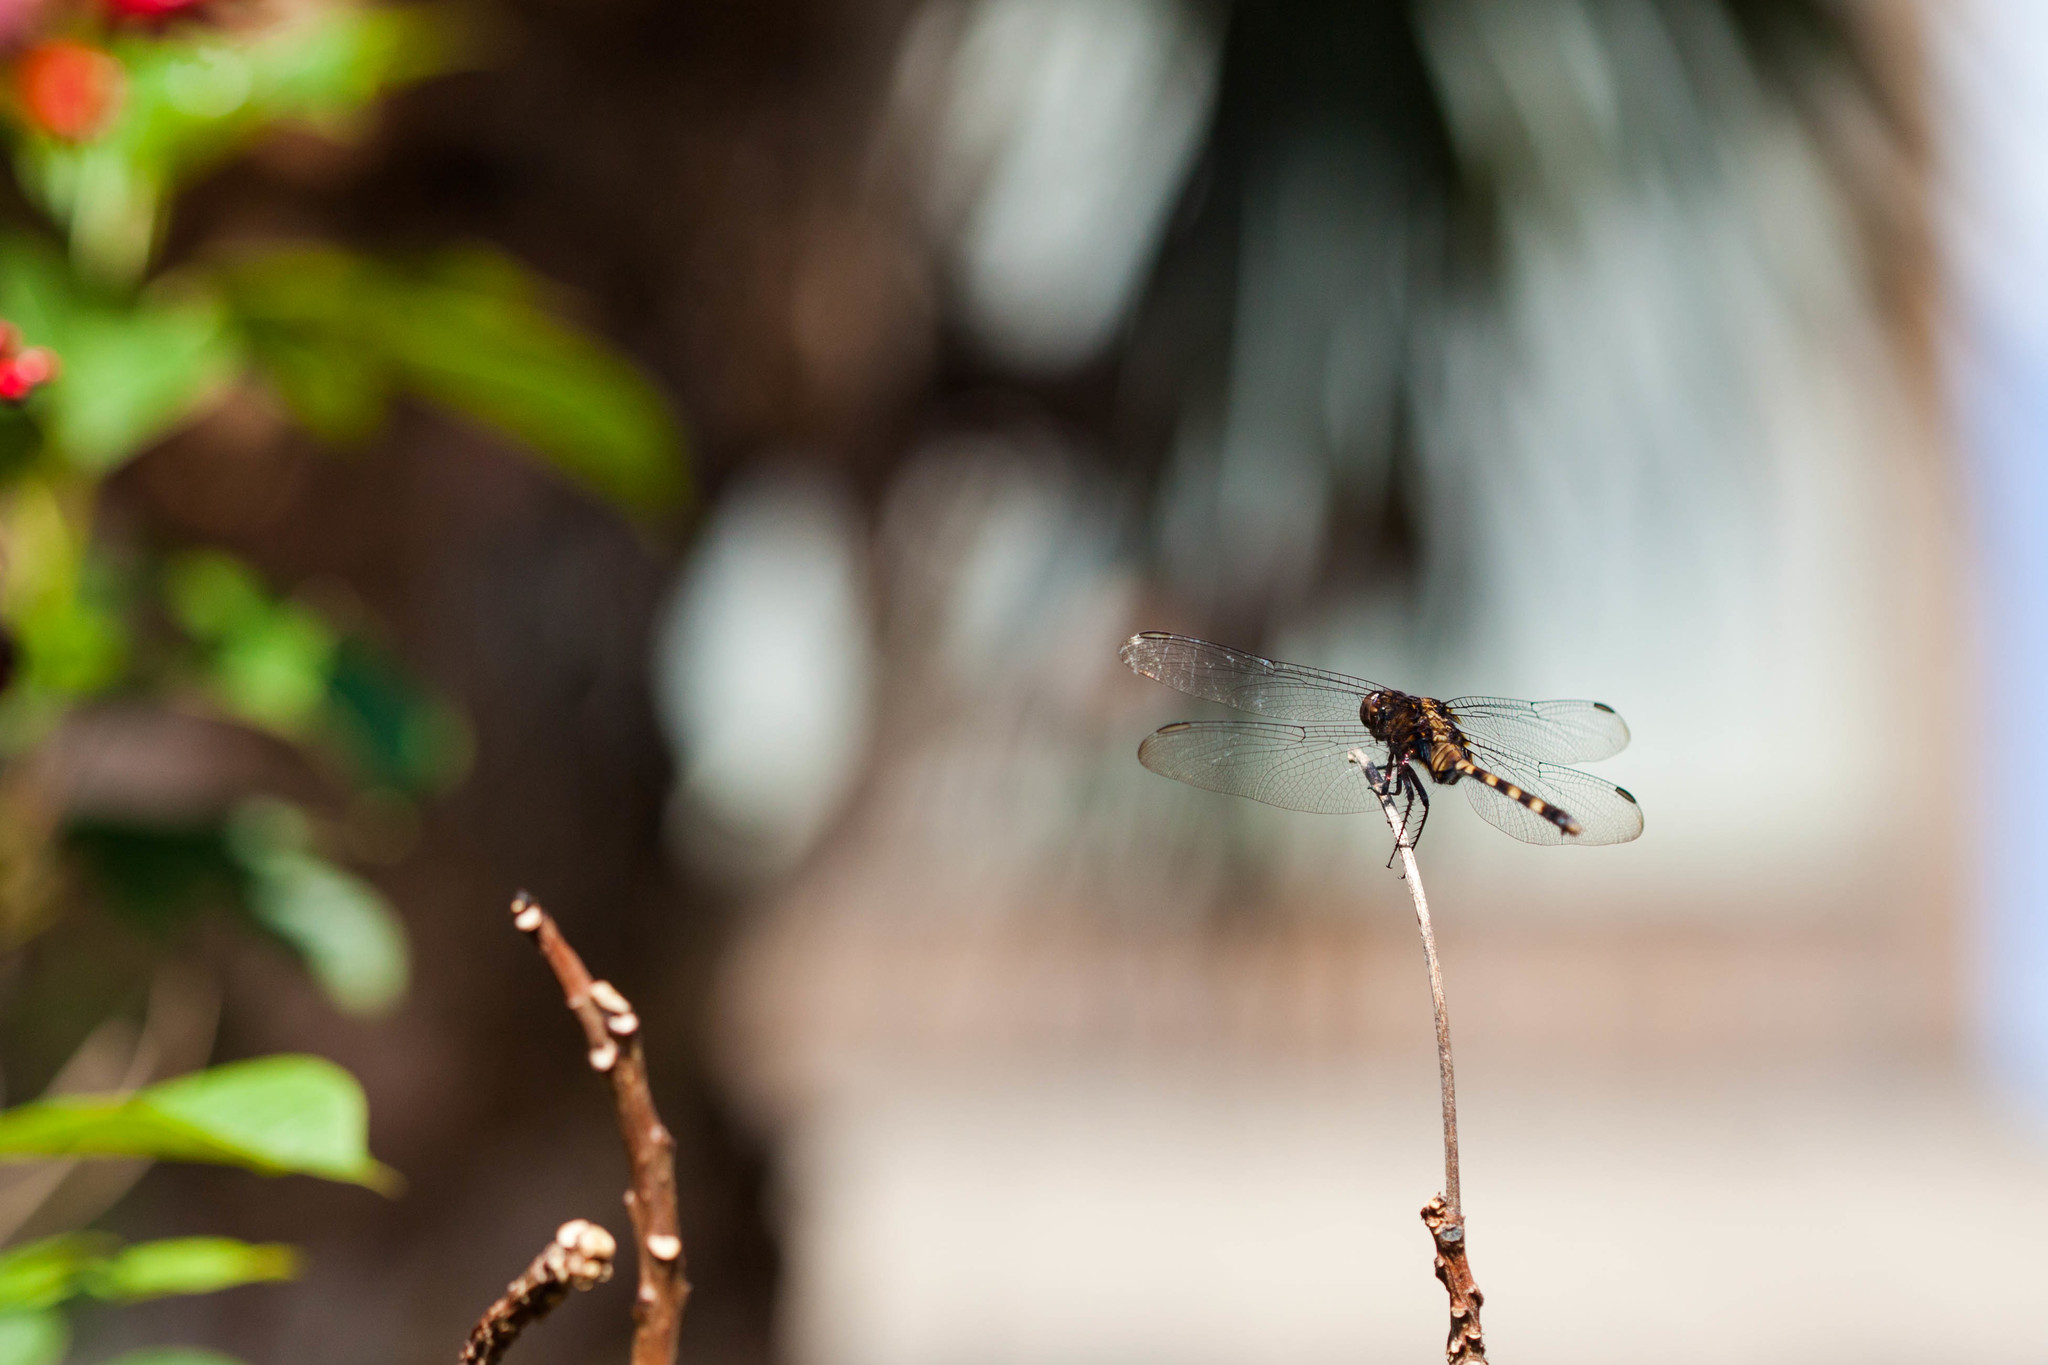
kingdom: Animalia
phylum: Arthropoda
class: Insecta
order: Odonata
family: Libellulidae
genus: Erythemis
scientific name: Erythemis plebeja
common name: Pin-tailed pondhawk
